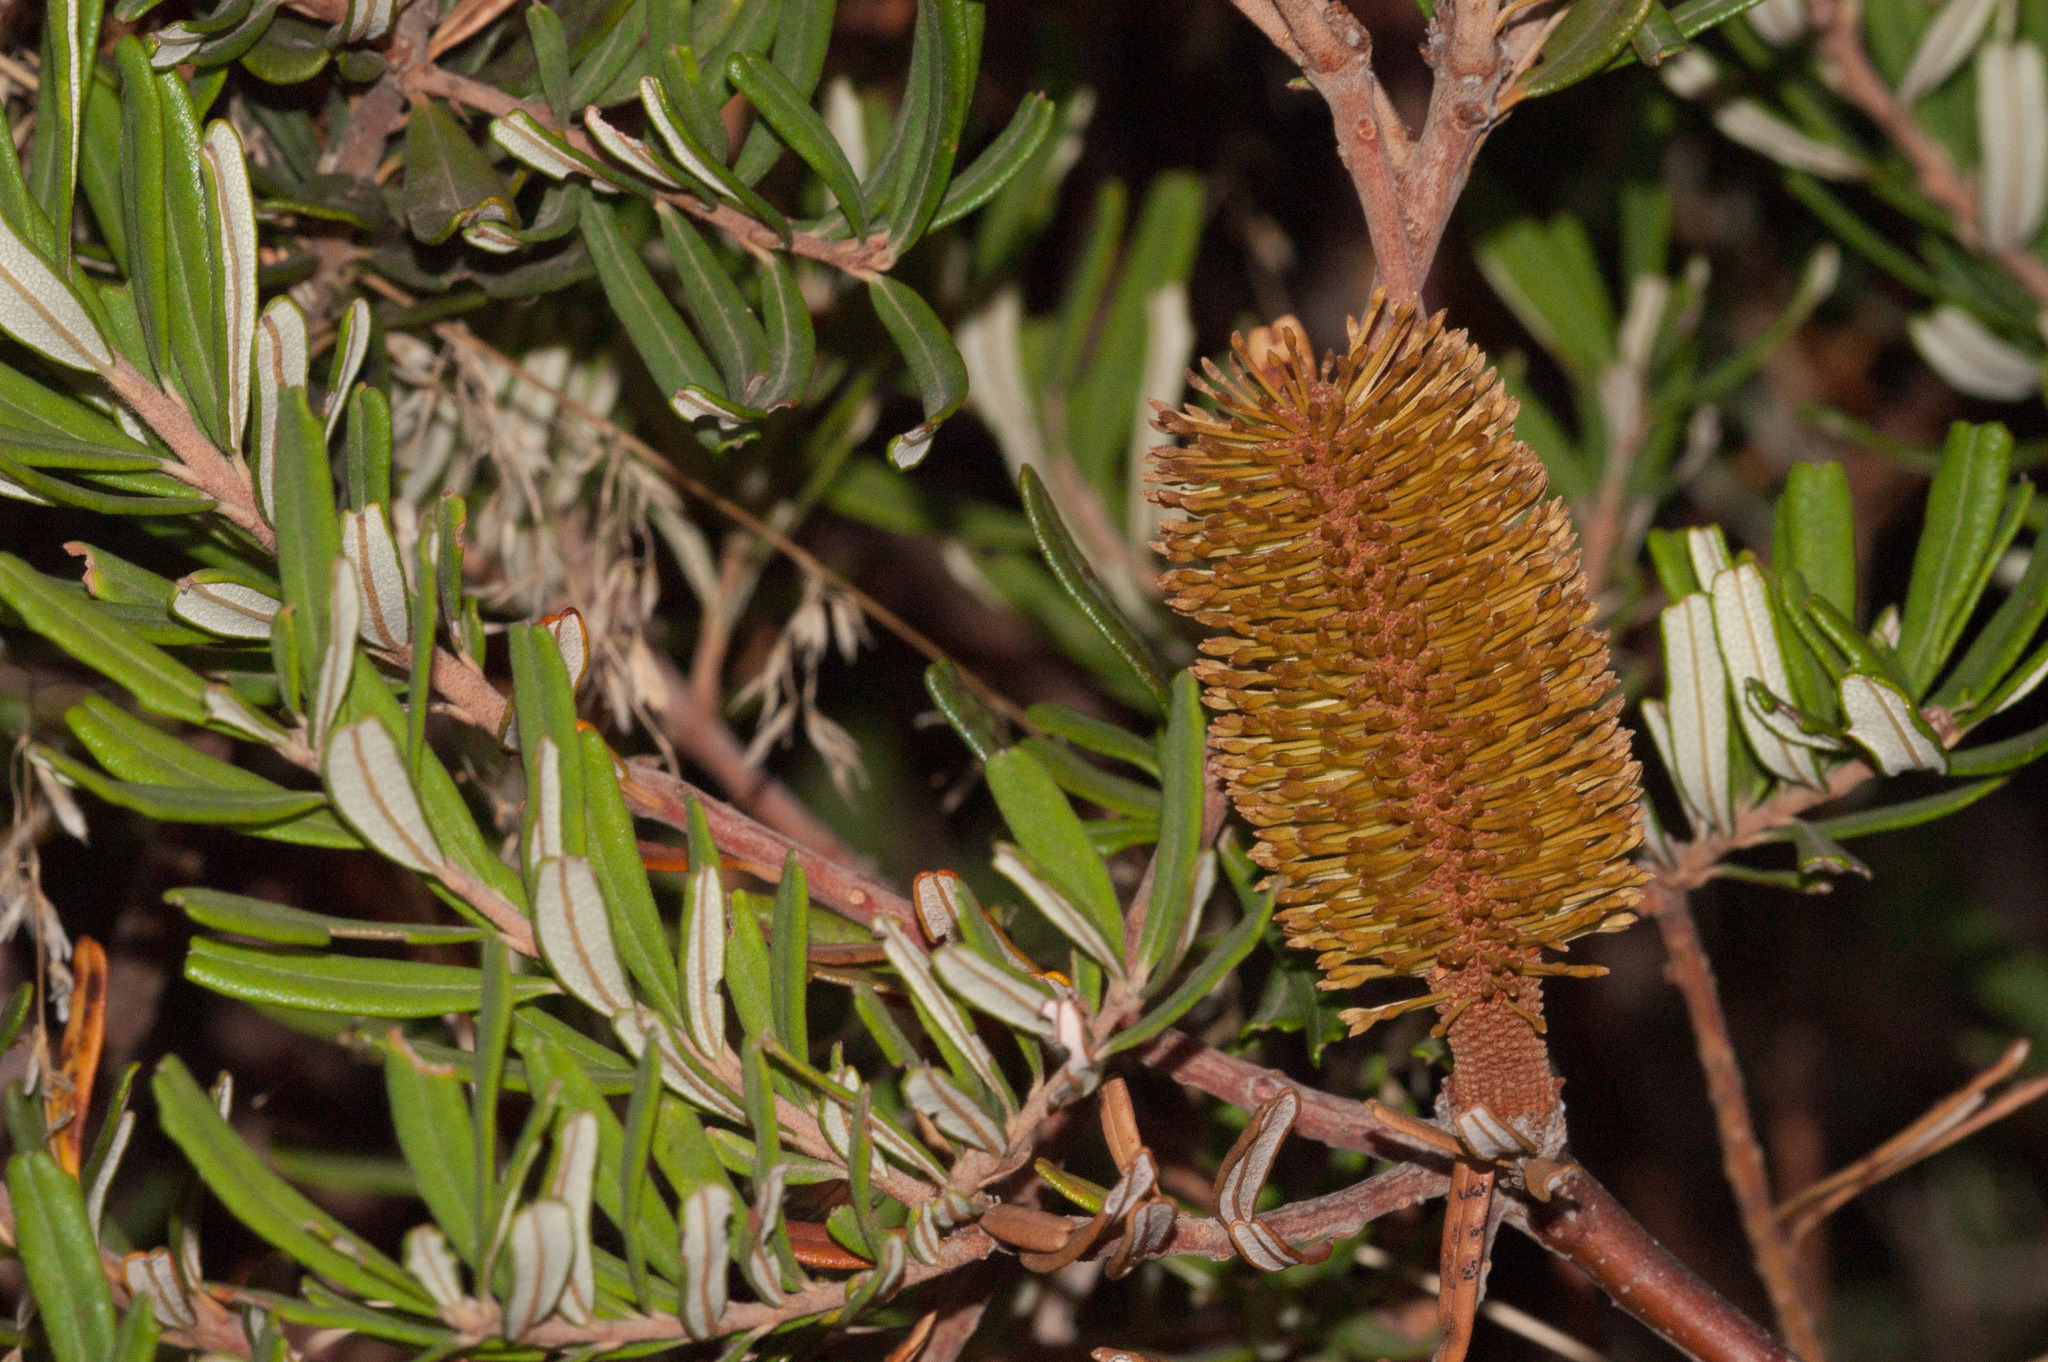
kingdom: Plantae
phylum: Tracheophyta
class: Magnoliopsida
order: Proteales
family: Proteaceae
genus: Banksia
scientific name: Banksia marginata
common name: Silver banksia
